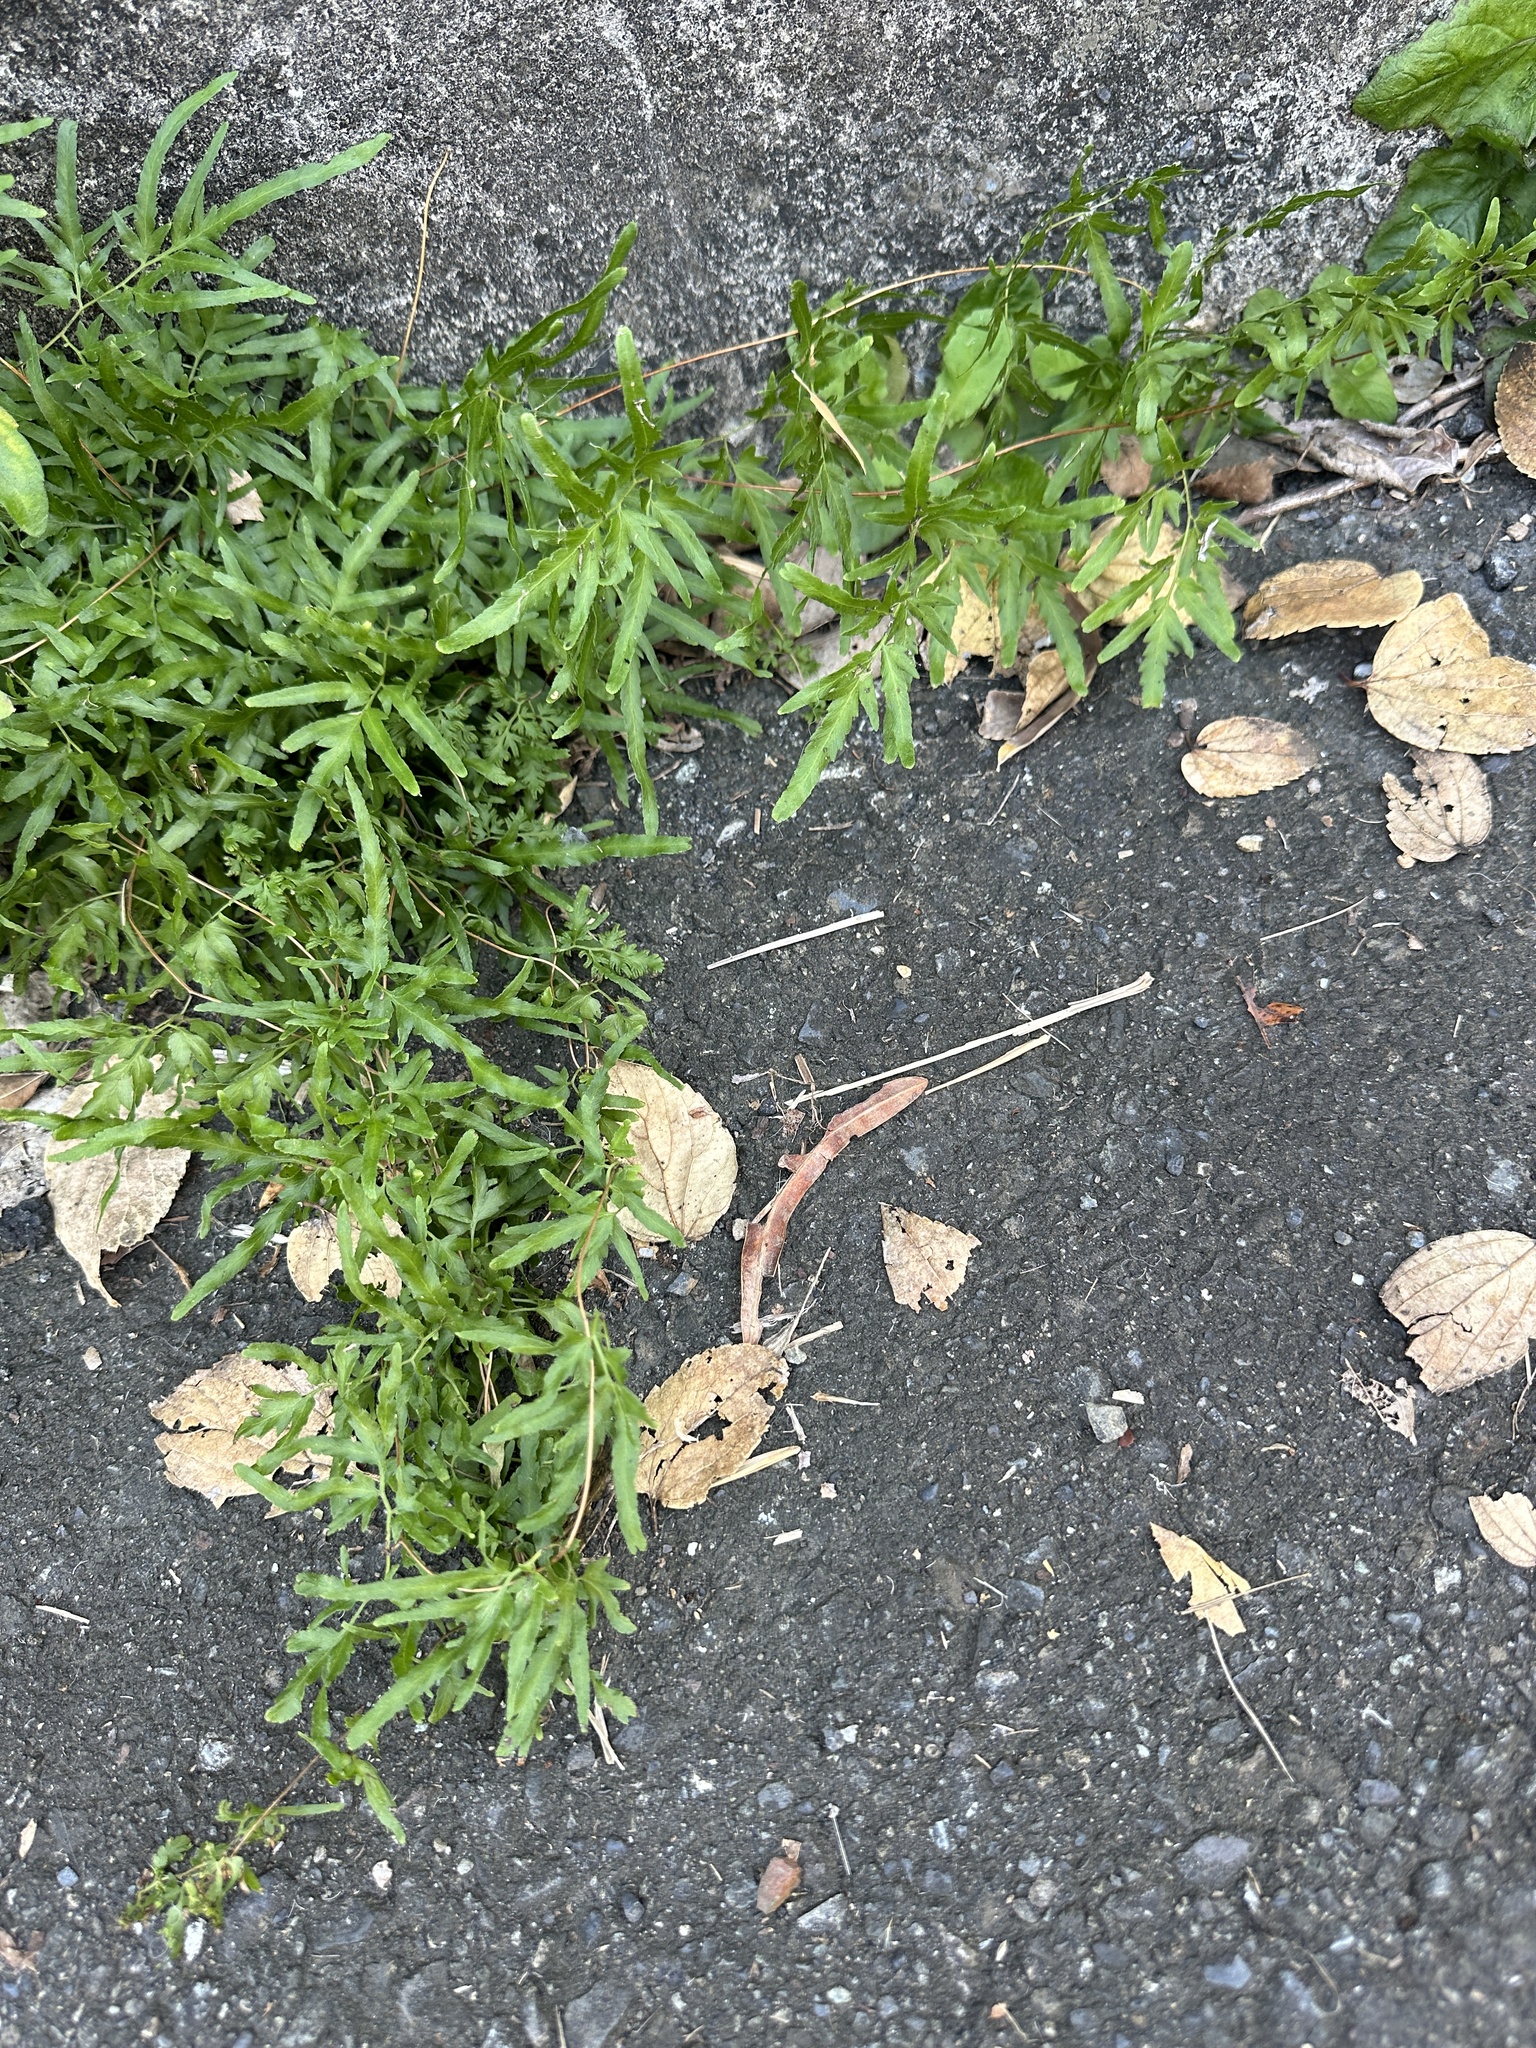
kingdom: Plantae
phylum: Tracheophyta
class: Polypodiopsida
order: Schizaeales
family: Lygodiaceae
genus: Lygodium
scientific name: Lygodium japonicum
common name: Japanese climbing fern
